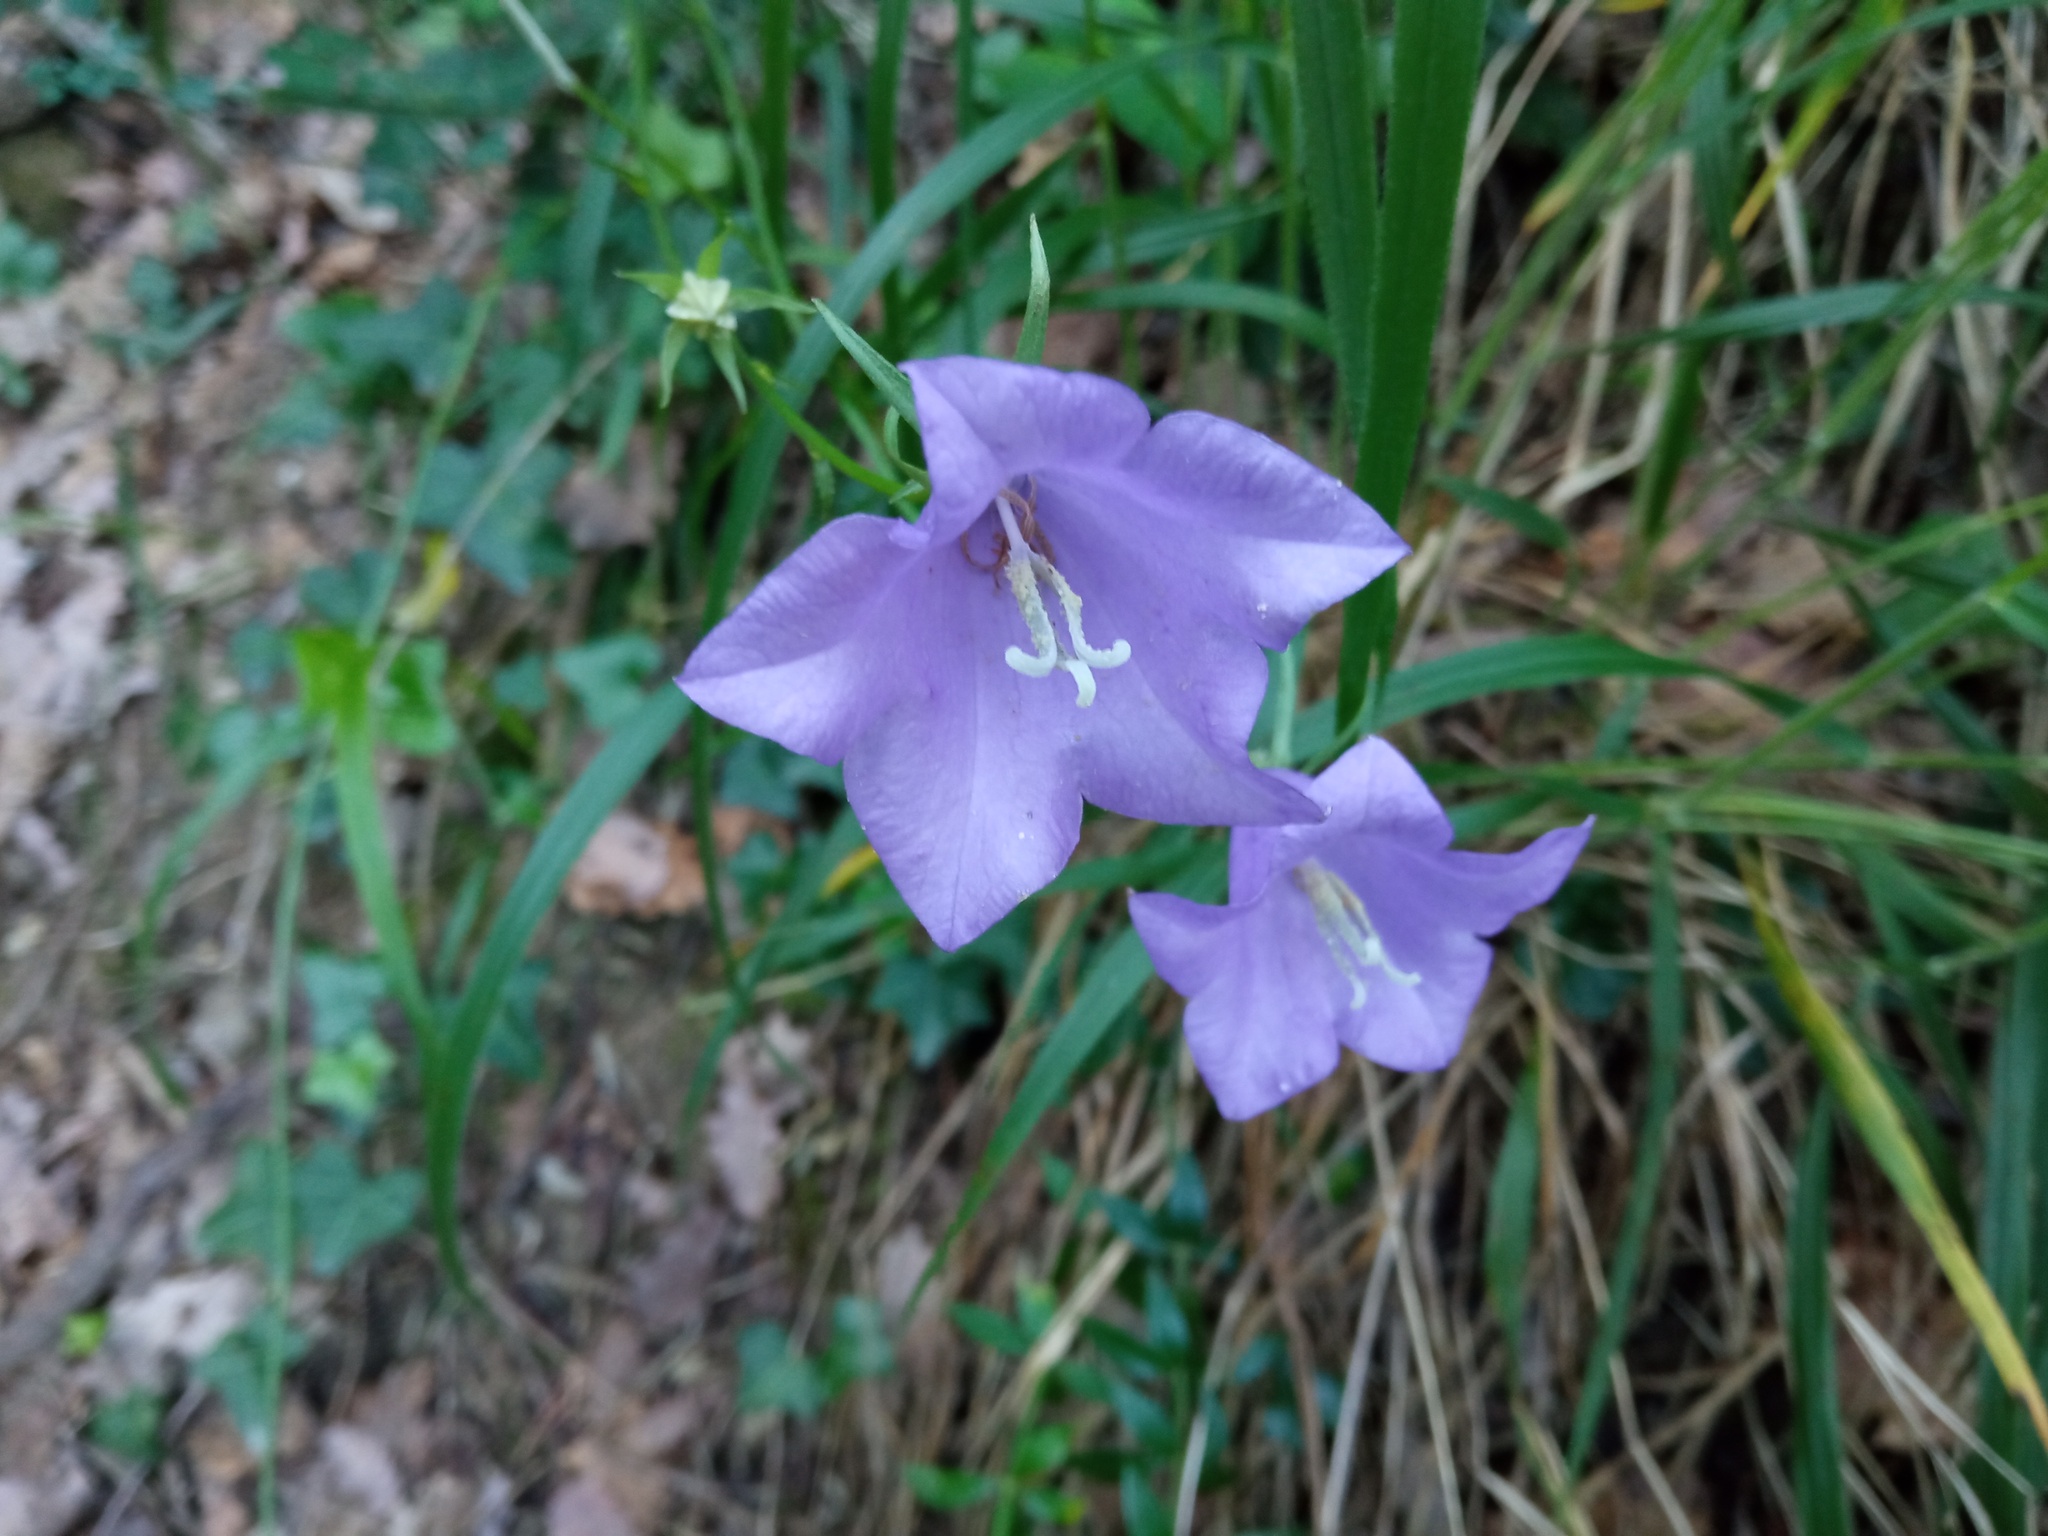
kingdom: Plantae
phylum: Tracheophyta
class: Magnoliopsida
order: Asterales
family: Campanulaceae
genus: Campanula
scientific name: Campanula persicifolia
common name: Peach-leaved bellflower
